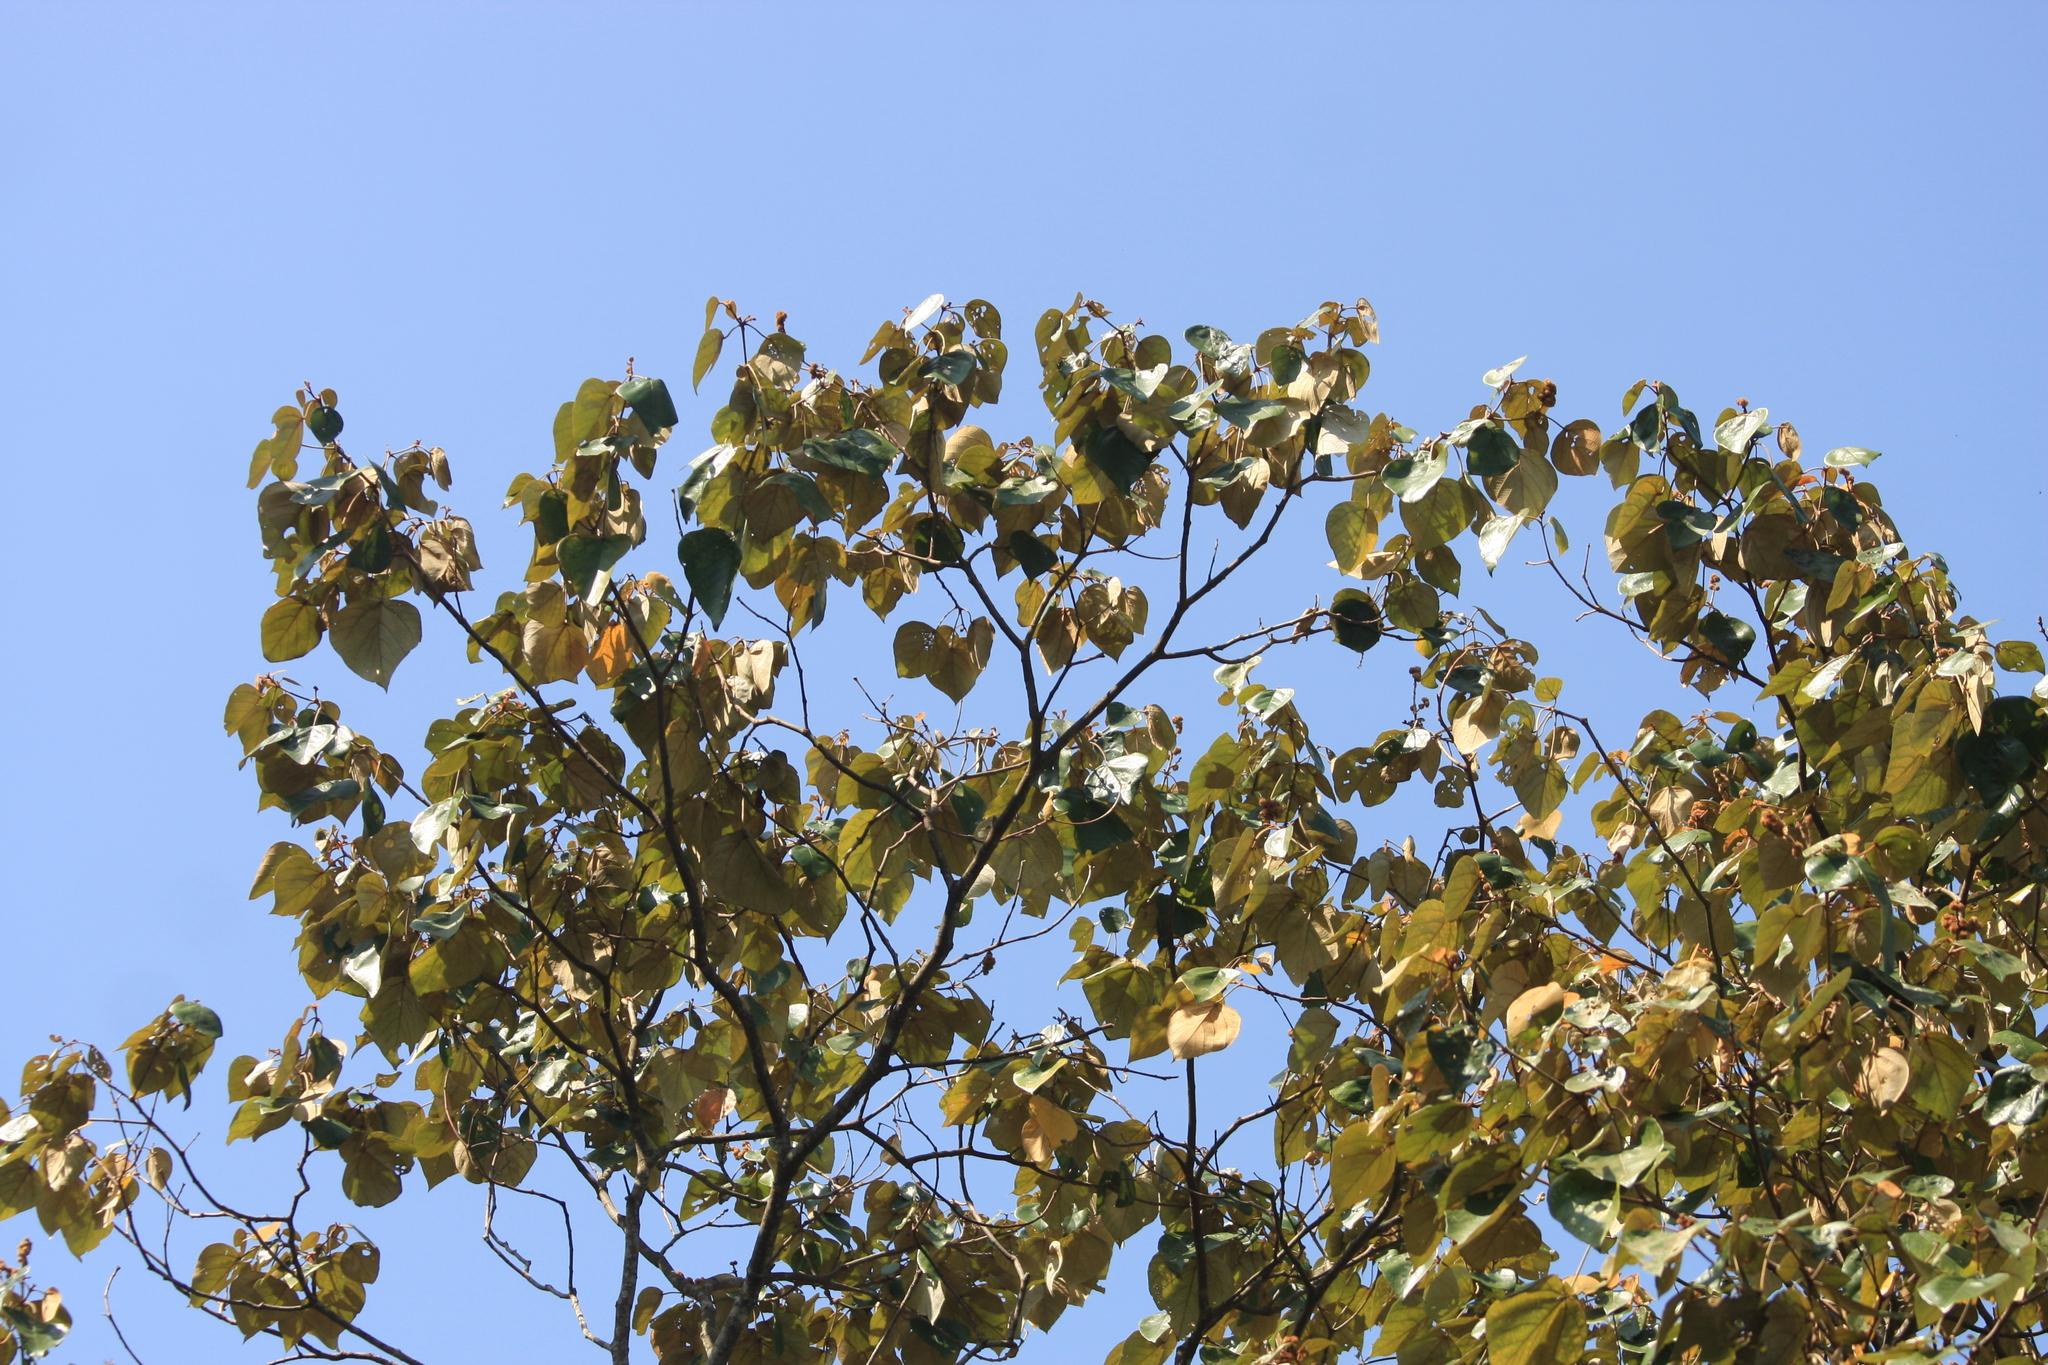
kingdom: Plantae
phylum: Tracheophyta
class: Magnoliopsida
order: Malpighiales
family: Euphorbiaceae
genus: Mallotus
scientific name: Mallotus tetracoccus
